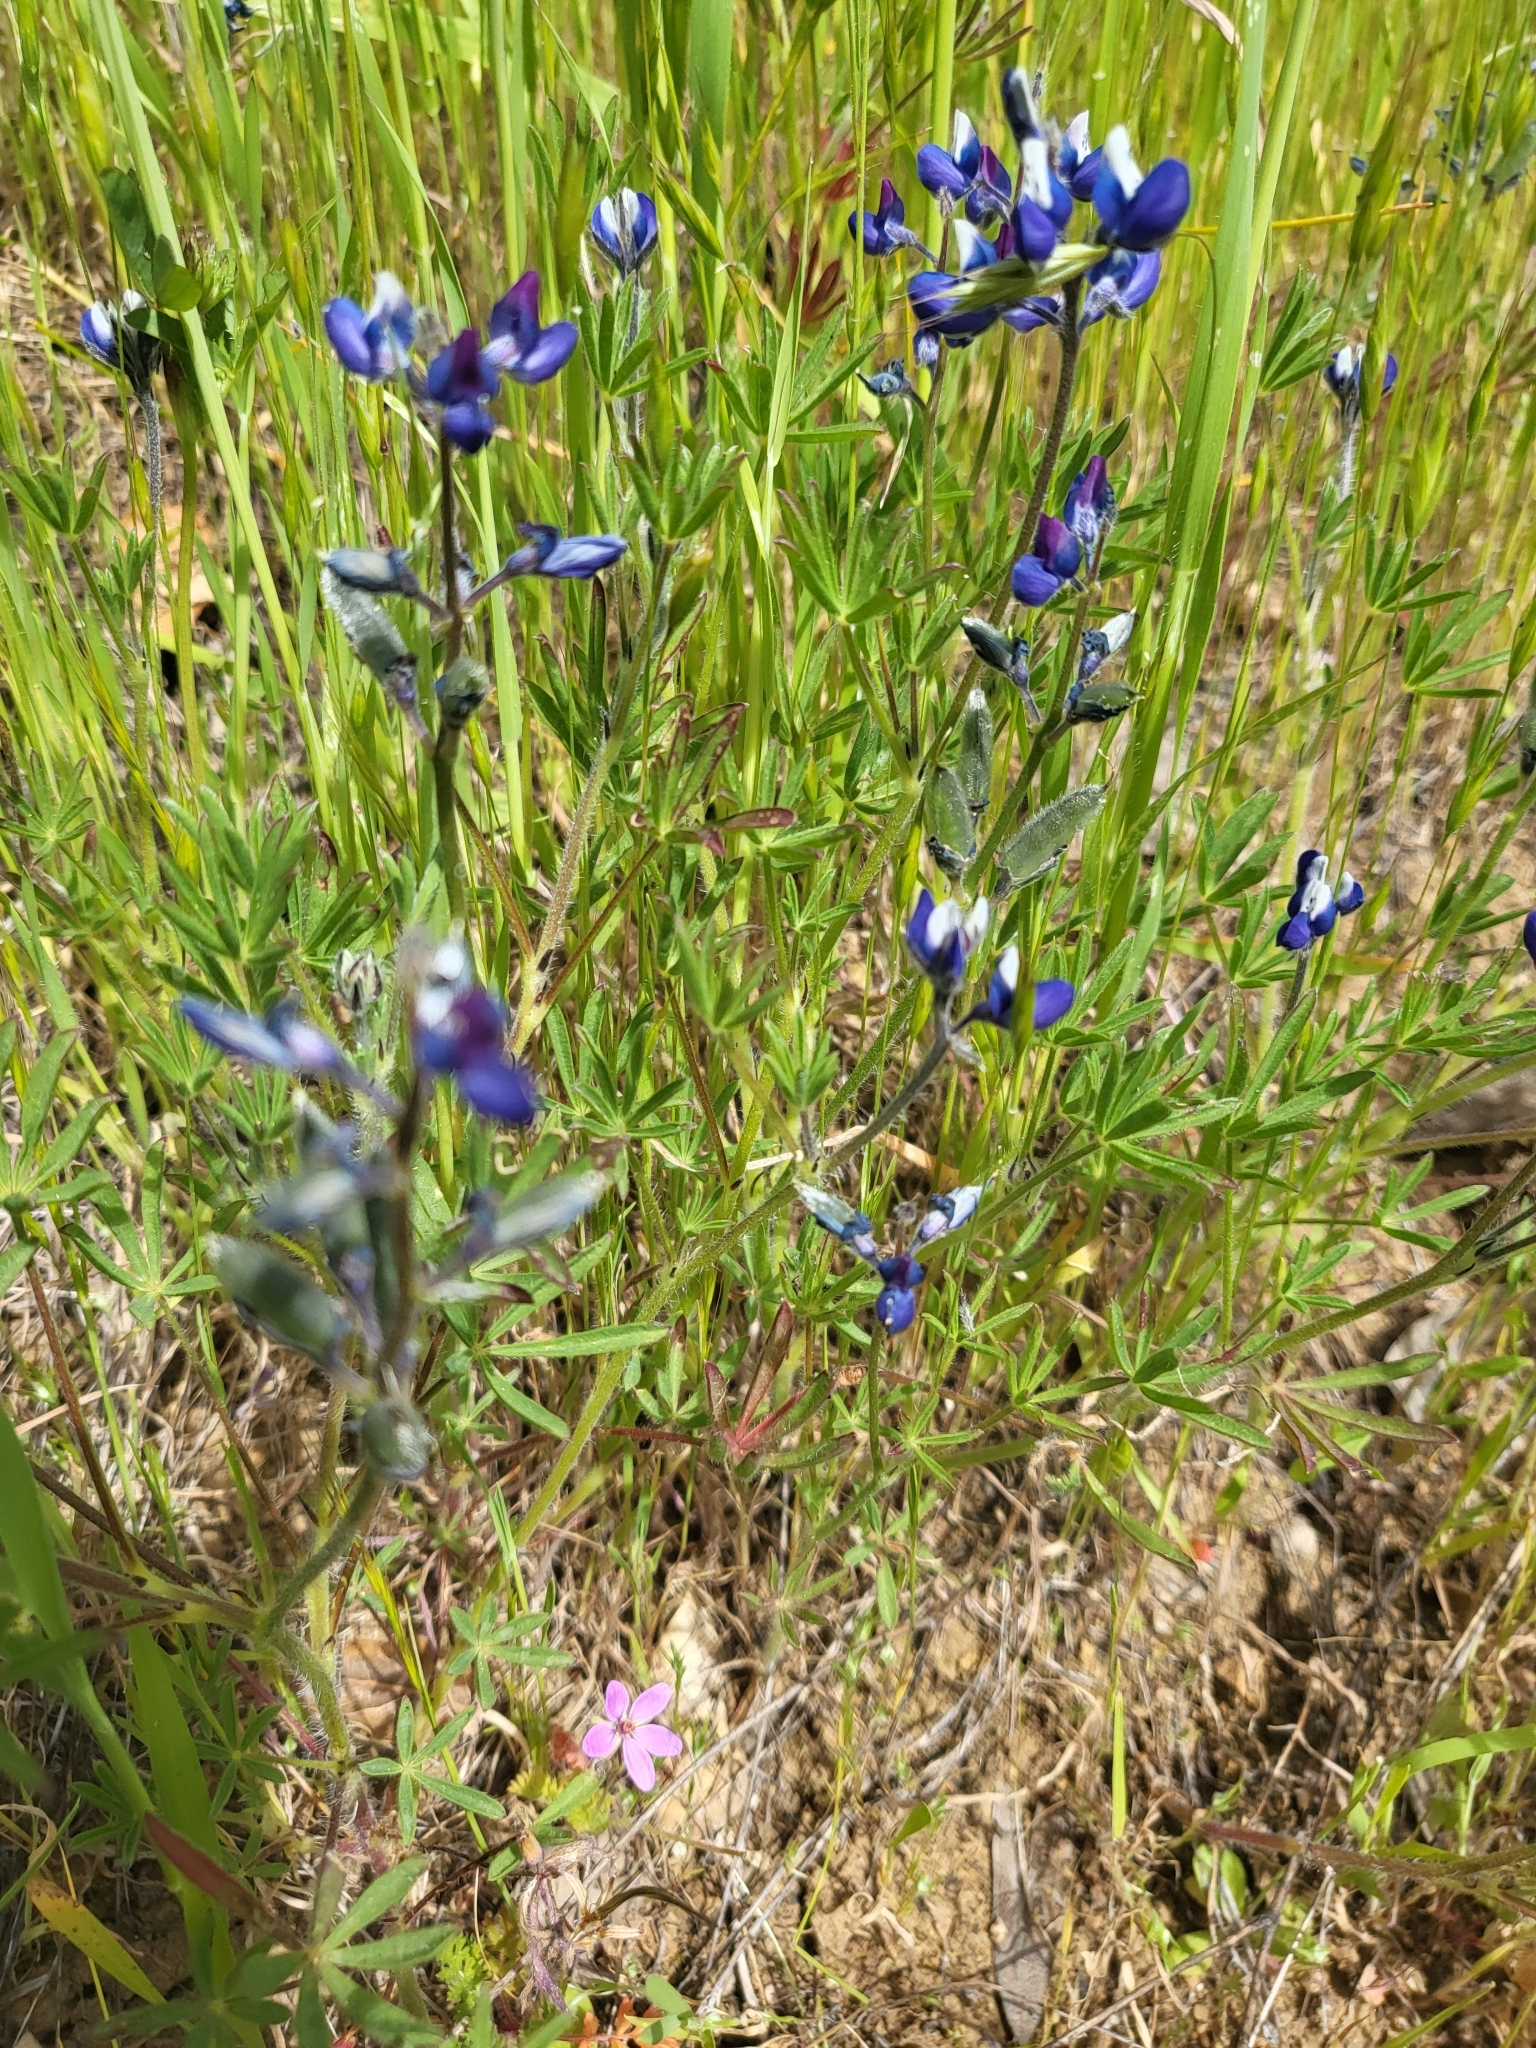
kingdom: Plantae
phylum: Tracheophyta
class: Magnoliopsida
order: Fabales
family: Fabaceae
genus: Lupinus
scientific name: Lupinus bicolor
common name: Miniature lupine
